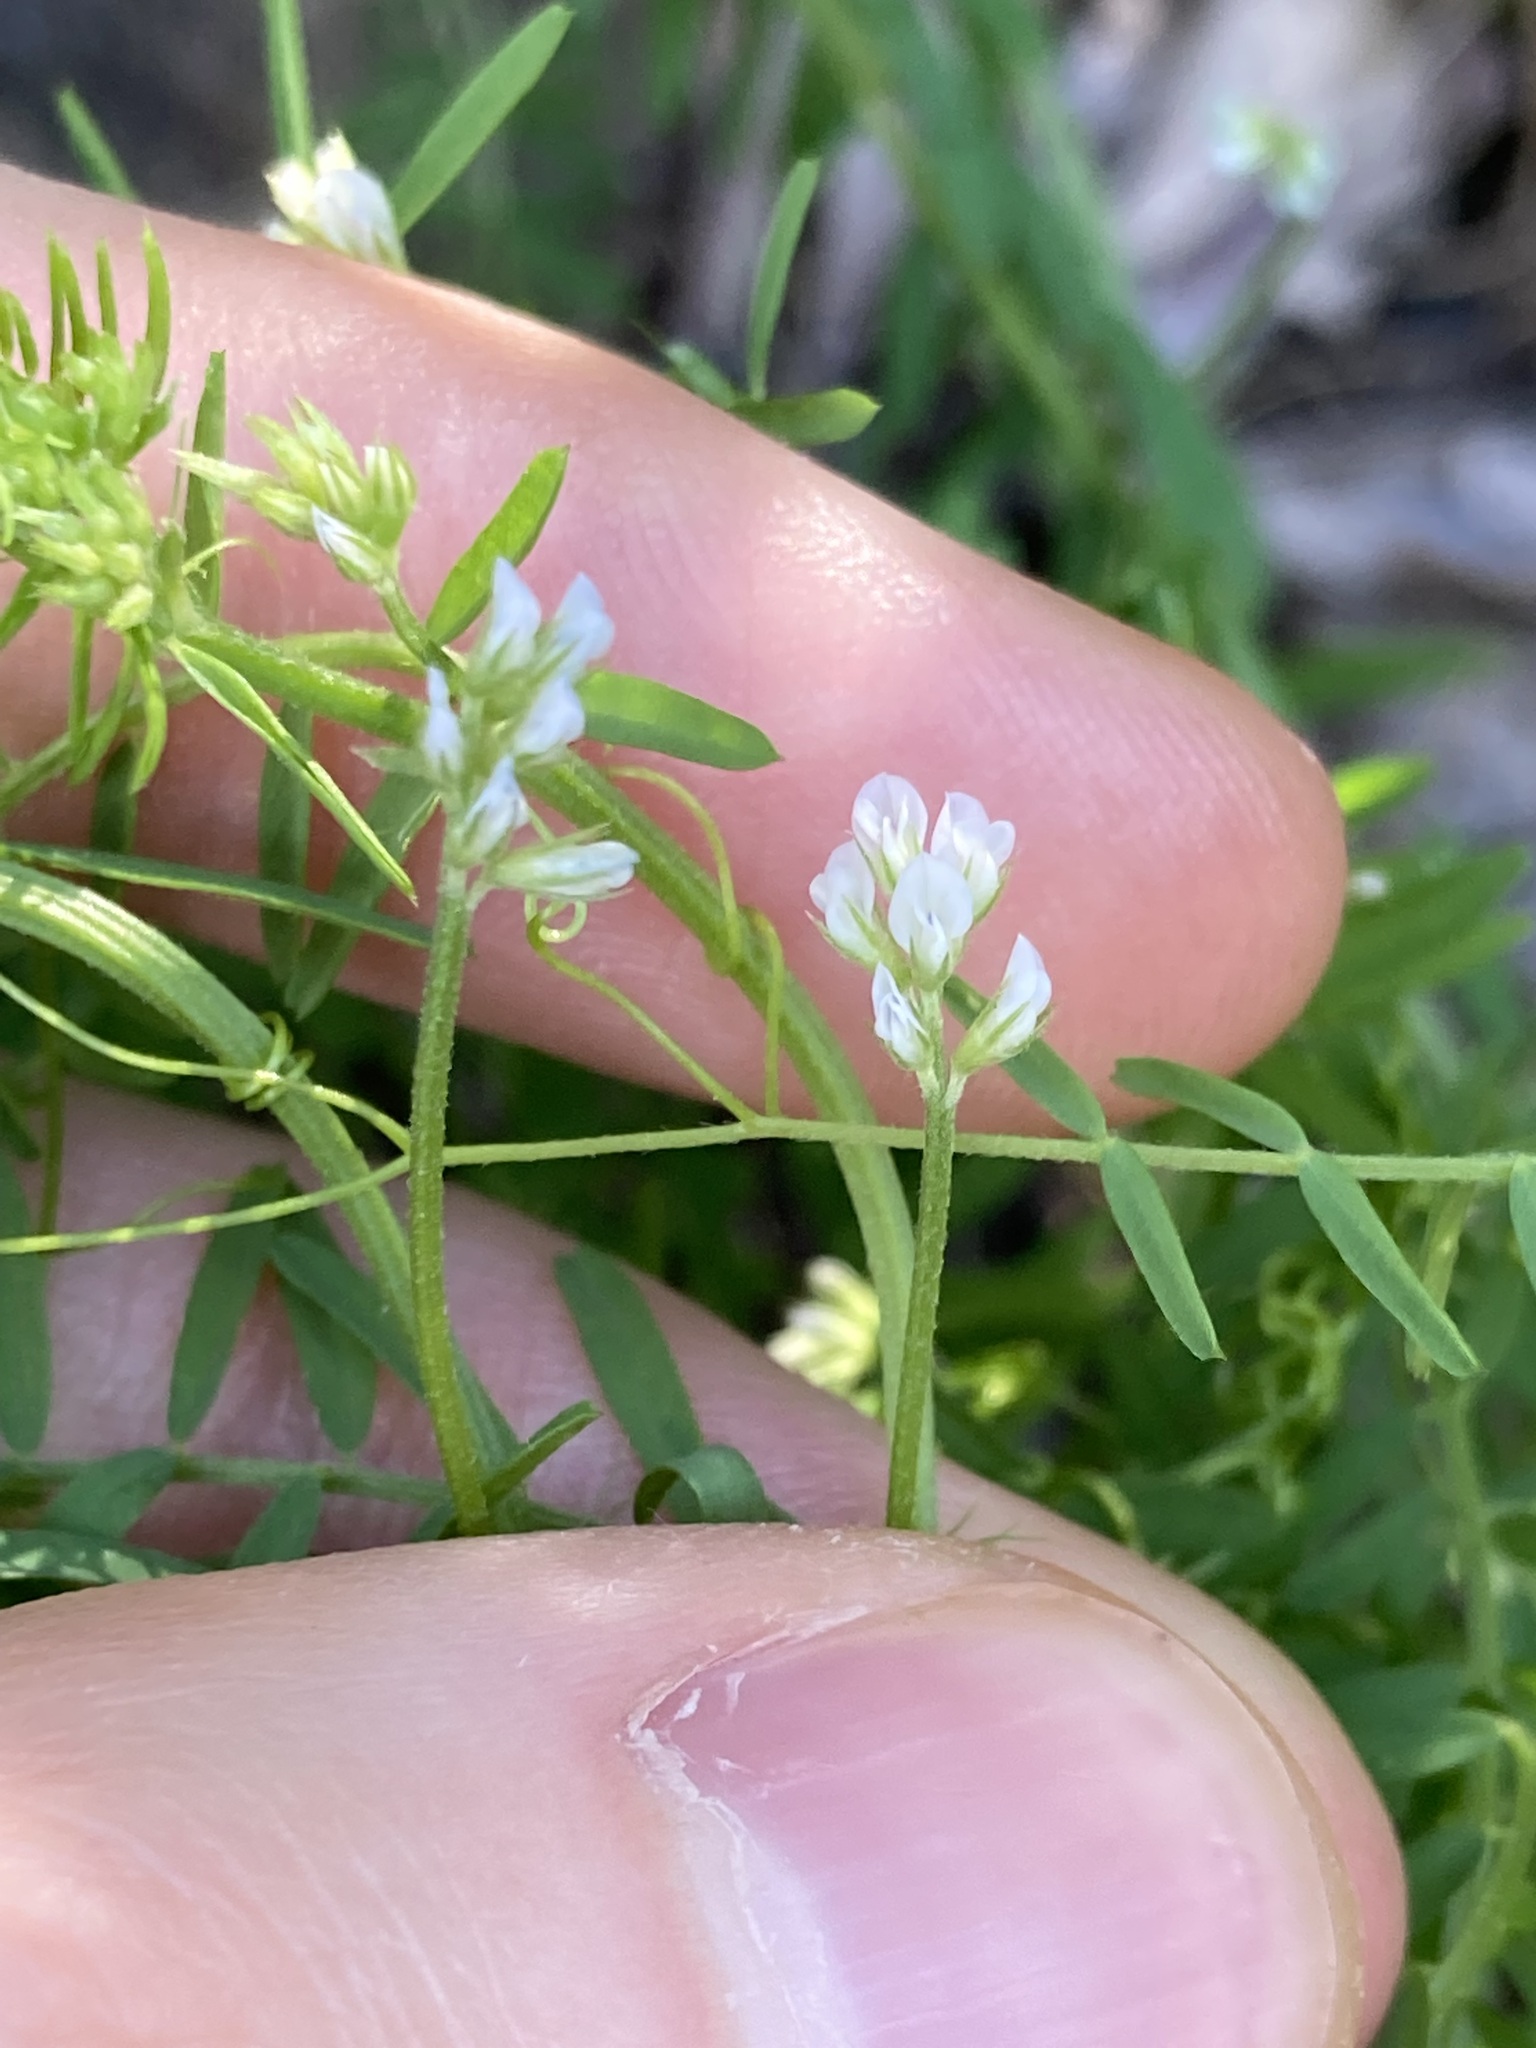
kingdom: Plantae
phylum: Tracheophyta
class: Magnoliopsida
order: Fabales
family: Fabaceae
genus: Vicia
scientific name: Vicia hirsuta
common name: Tiny vetch
